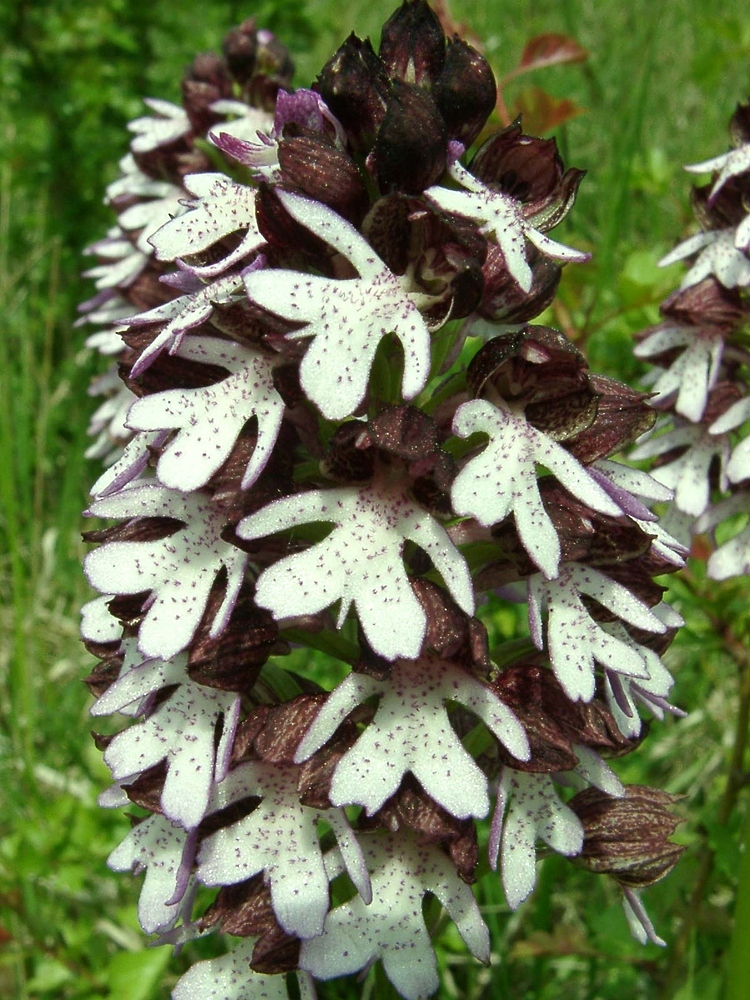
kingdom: Plantae
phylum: Tracheophyta
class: Liliopsida
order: Asparagales
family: Orchidaceae
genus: Orchis
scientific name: Orchis purpurea
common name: Lady orchid
